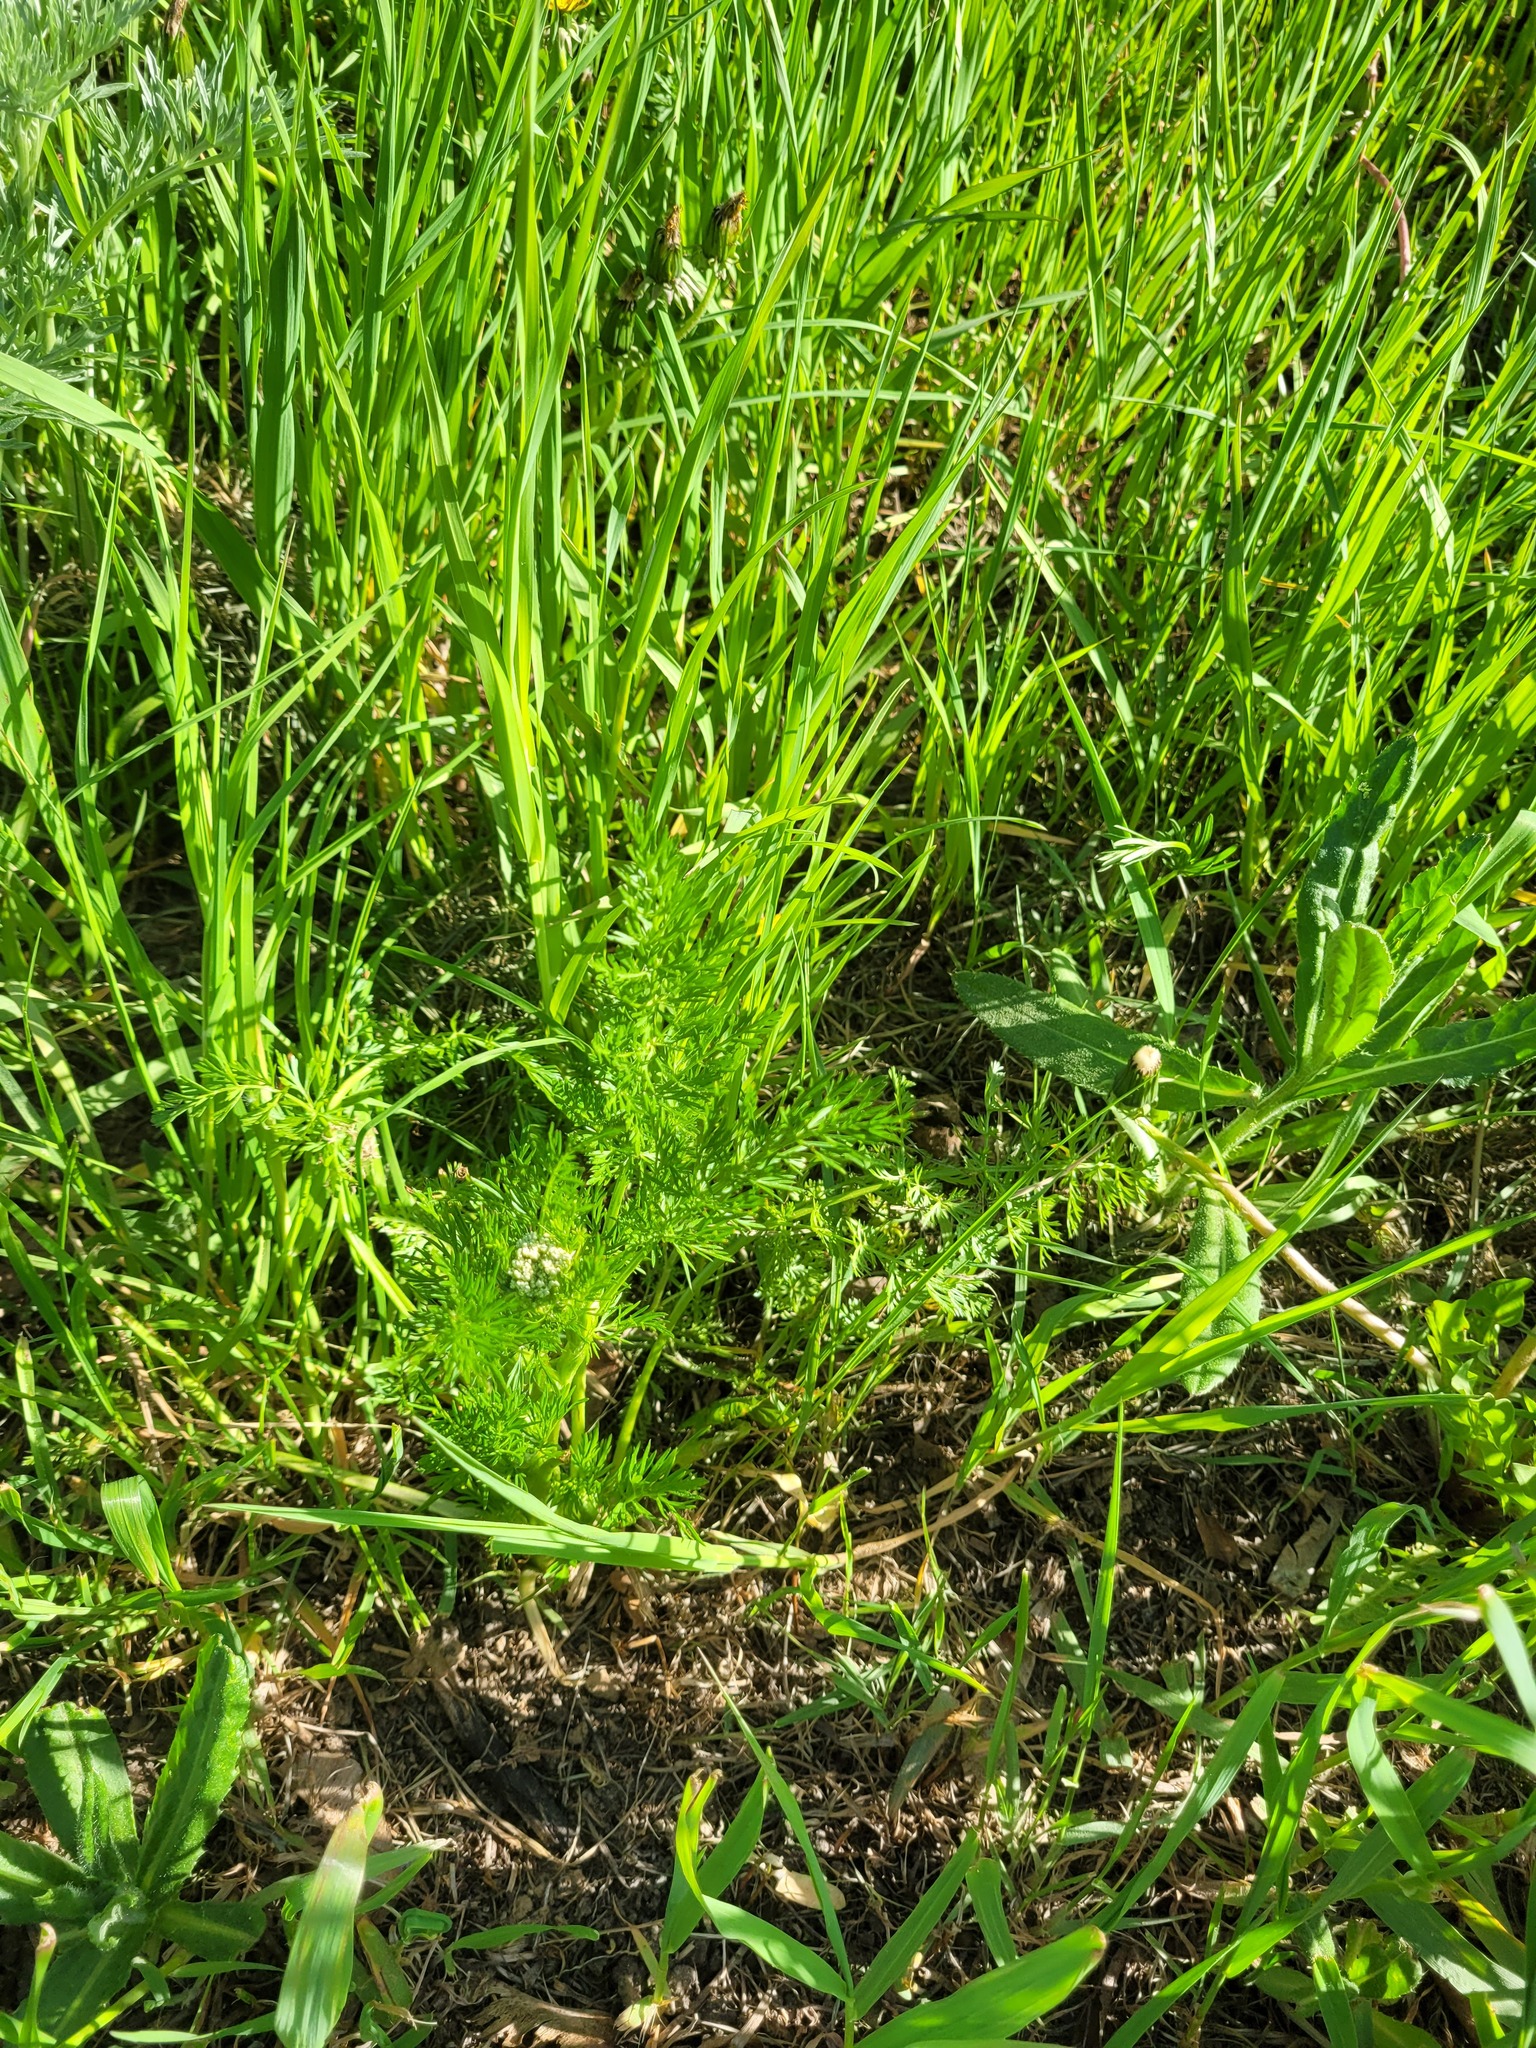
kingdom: Plantae
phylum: Tracheophyta
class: Magnoliopsida
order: Apiales
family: Apiaceae
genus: Carum
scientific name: Carum carvi
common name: Caraway
